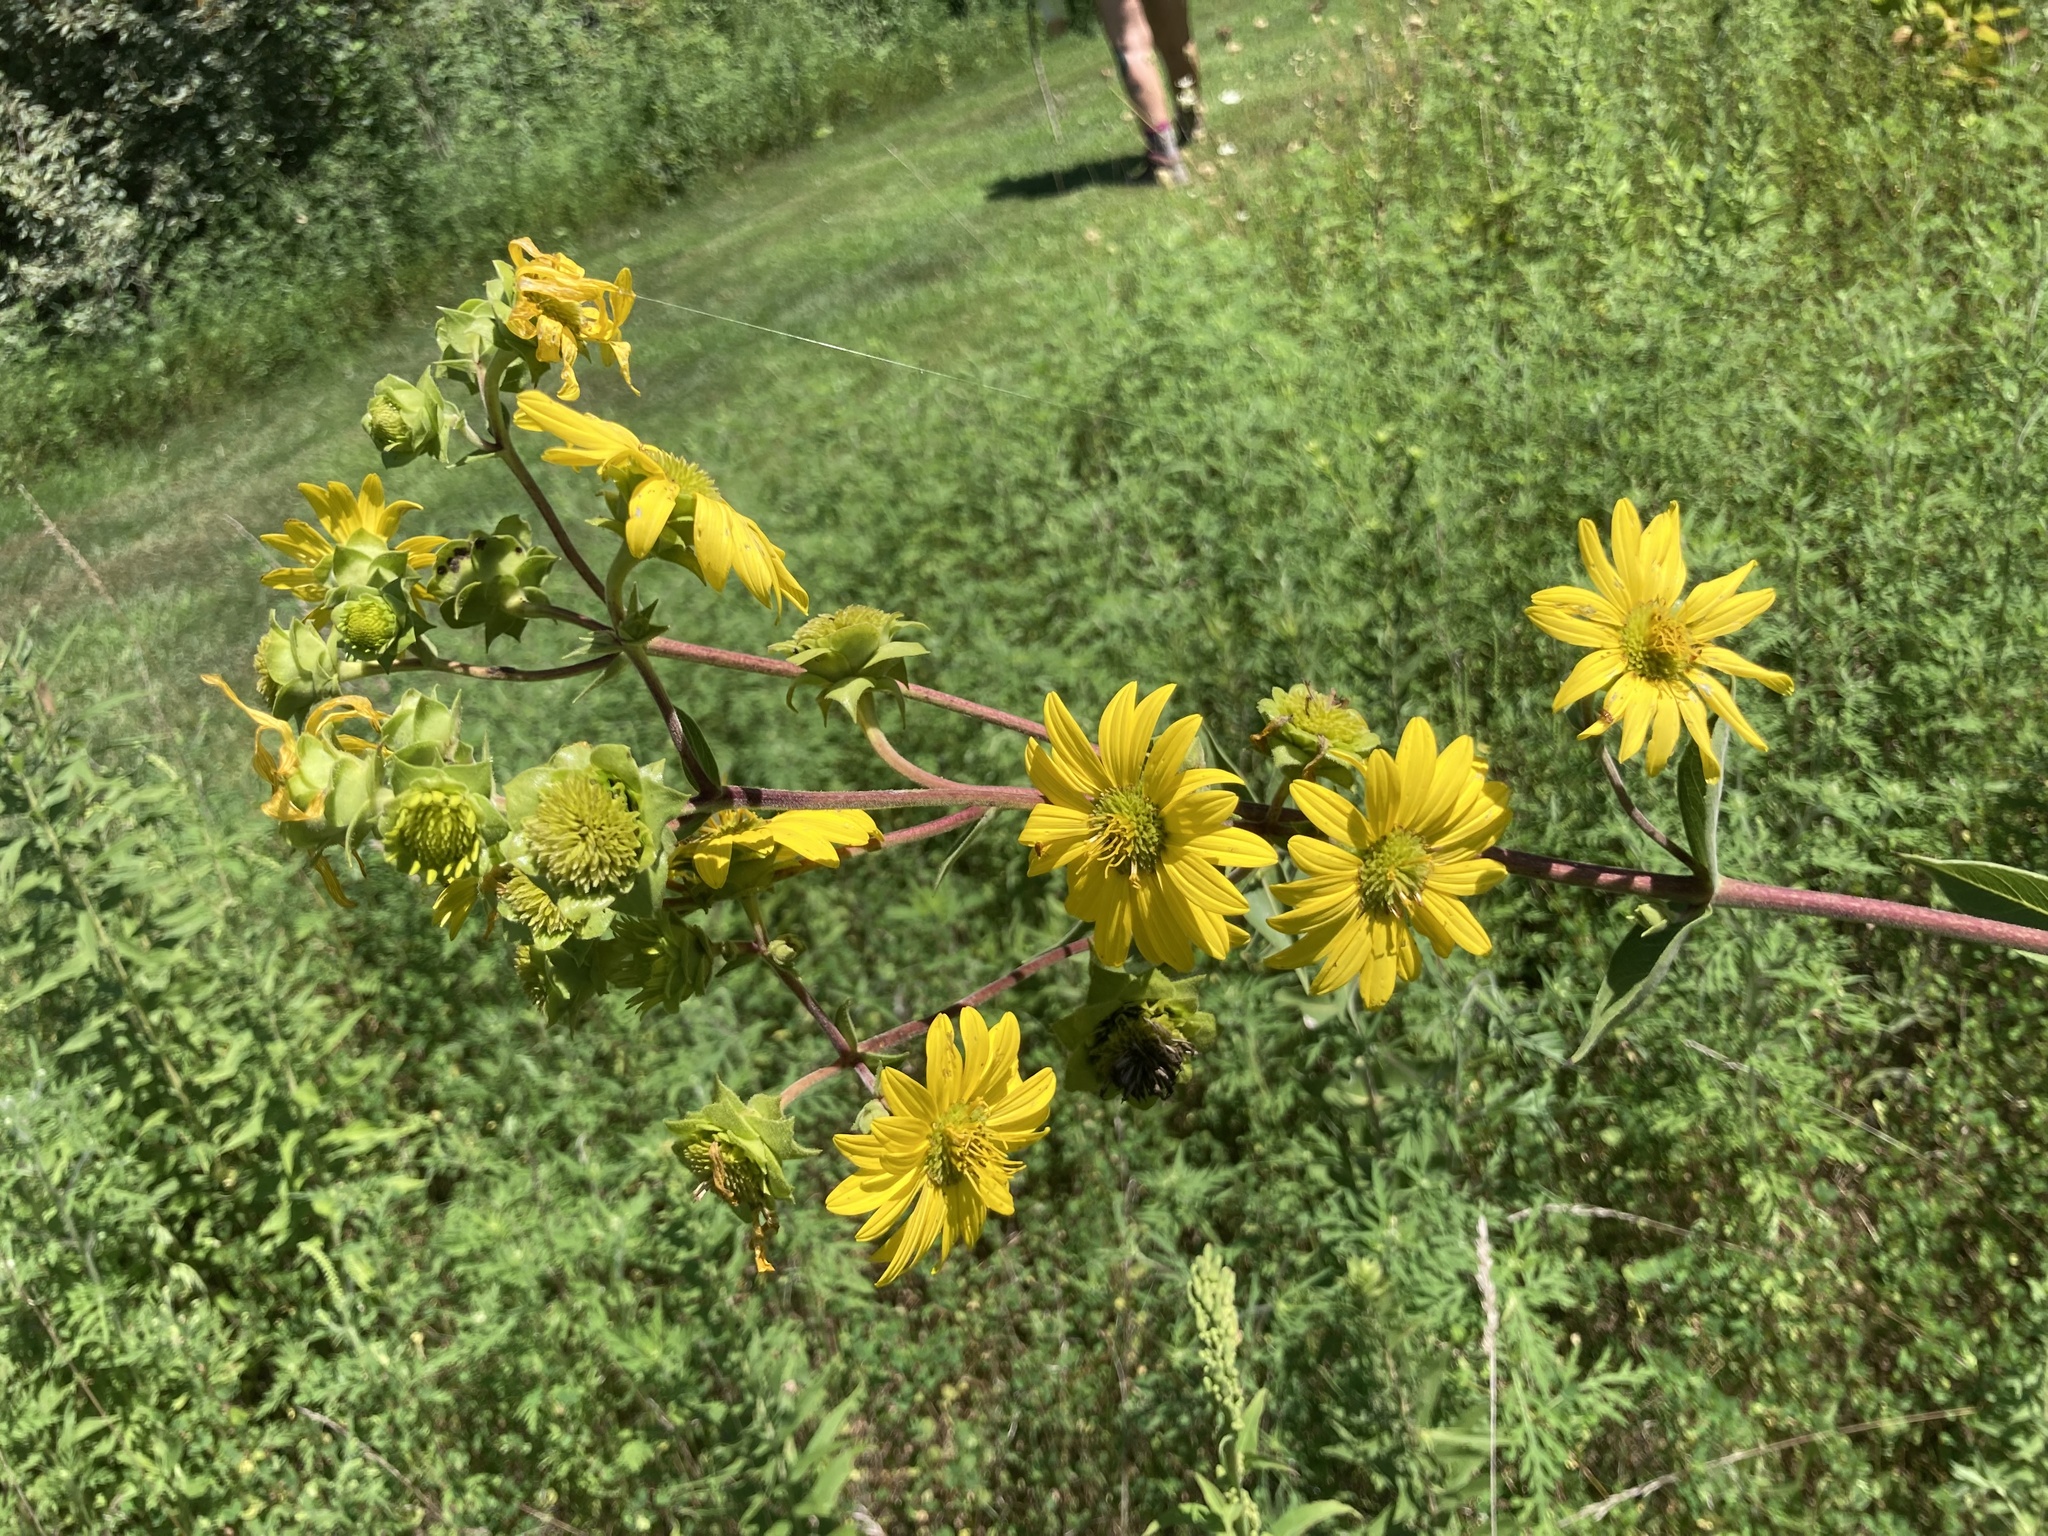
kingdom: Plantae
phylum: Tracheophyta
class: Magnoliopsida
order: Asterales
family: Asteraceae
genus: Silphium
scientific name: Silphium integrifolium
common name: Whole-leaf rosinweed
